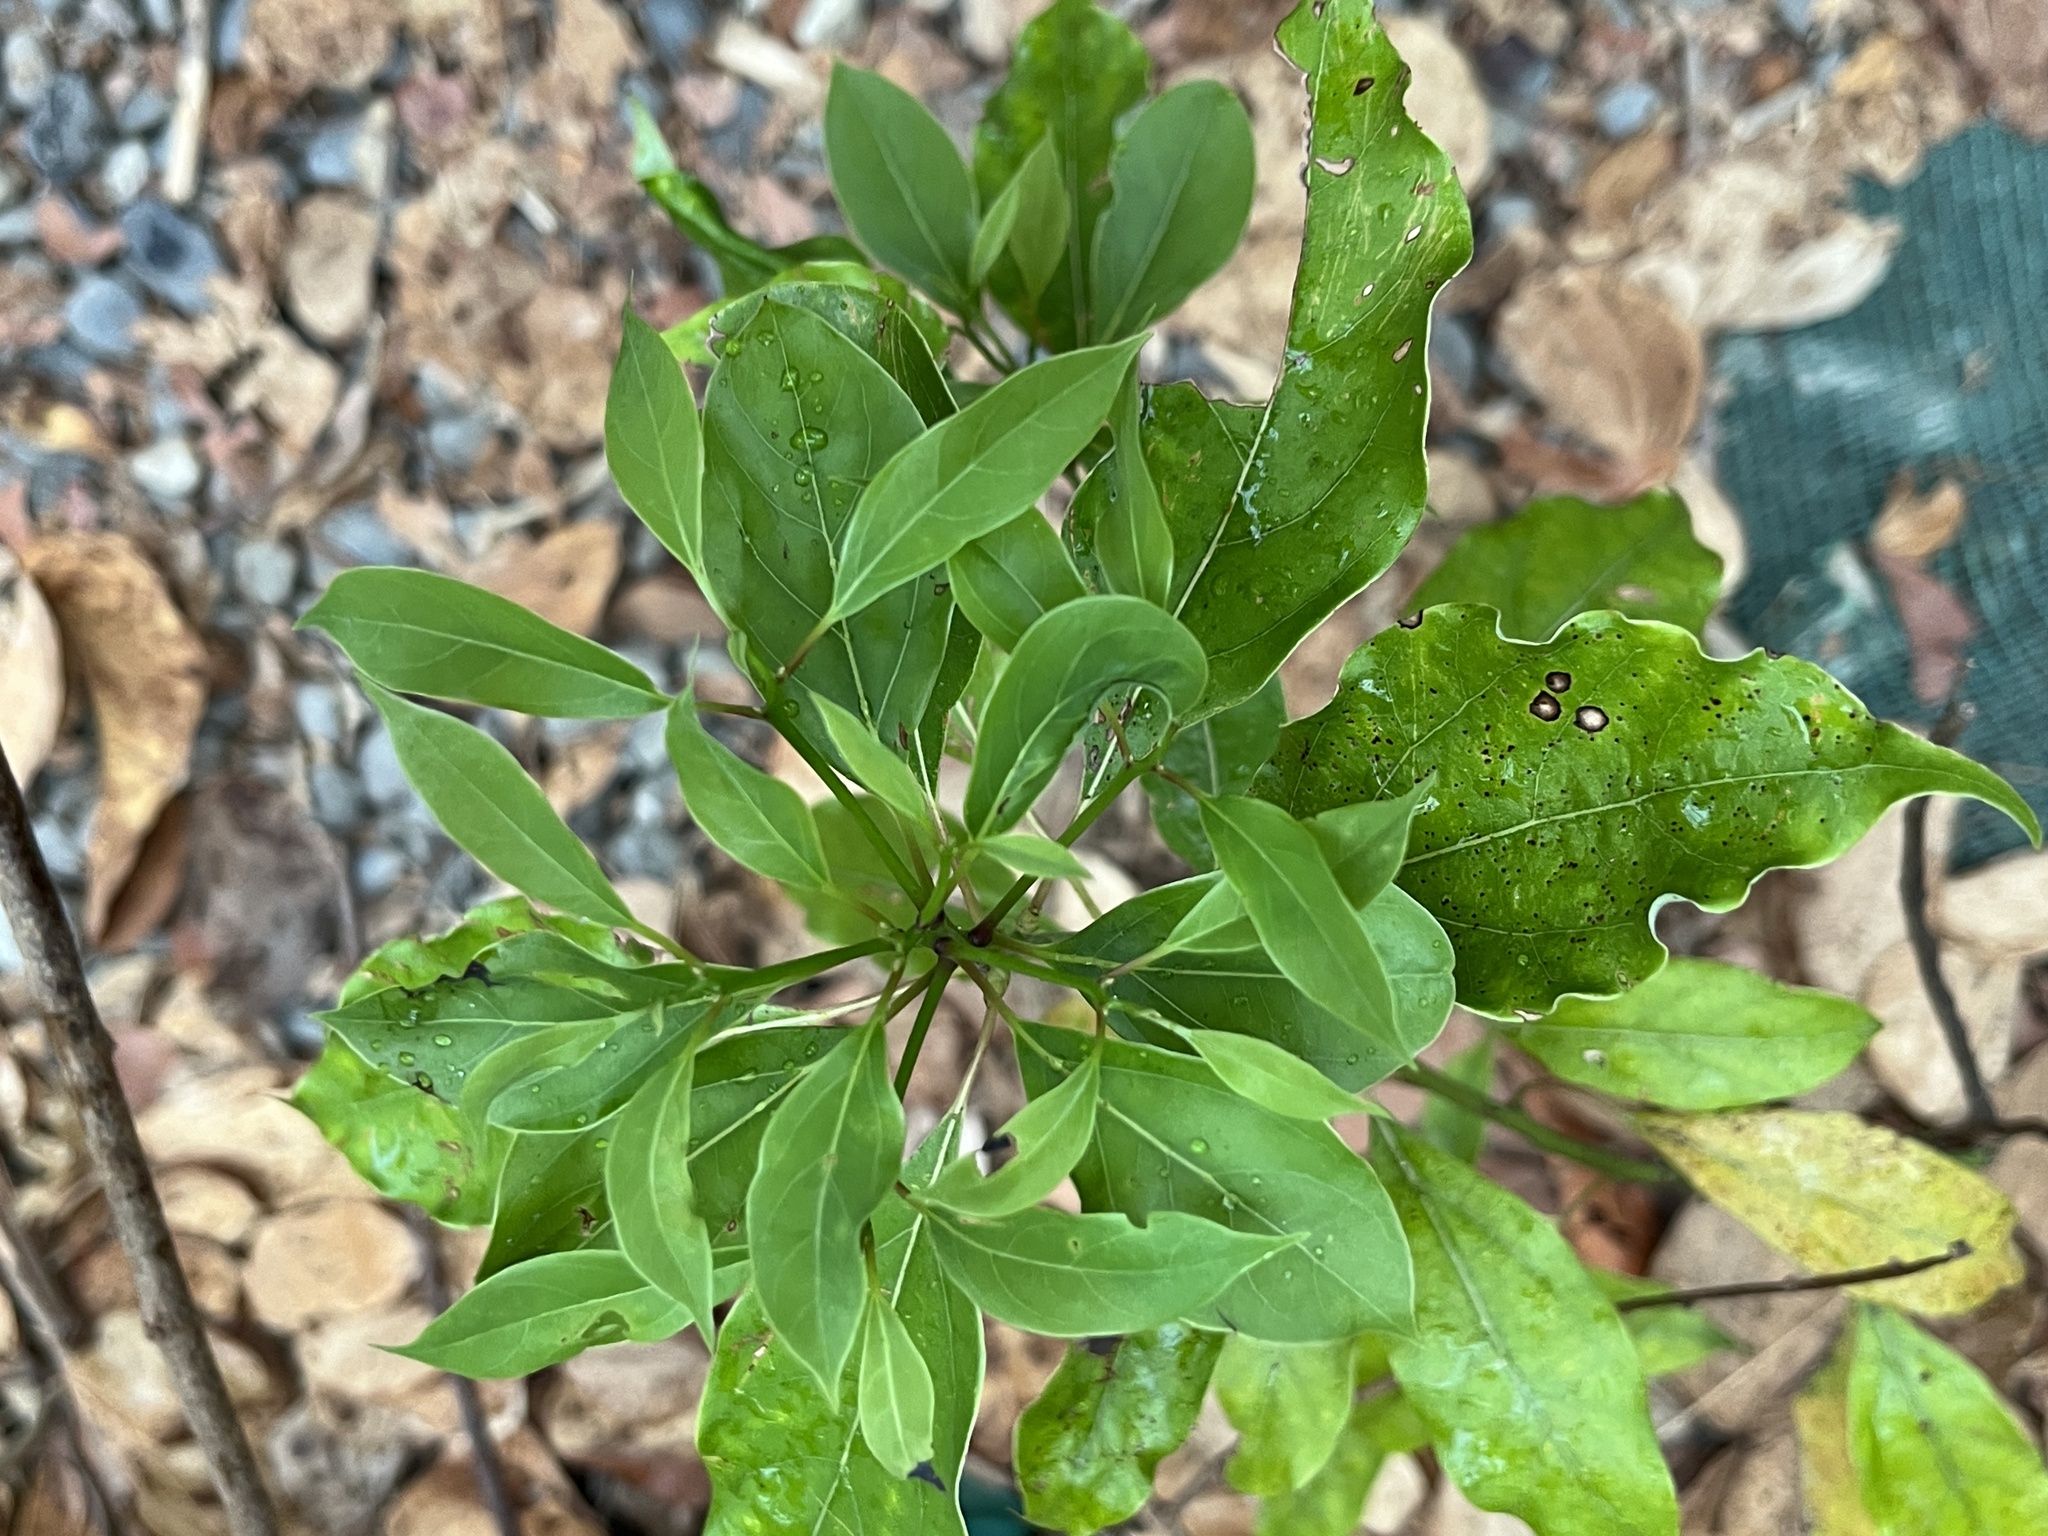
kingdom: Plantae
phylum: Tracheophyta
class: Magnoliopsida
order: Laurales
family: Lauraceae
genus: Cinnamomum
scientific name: Cinnamomum camphora
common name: Camphortree
